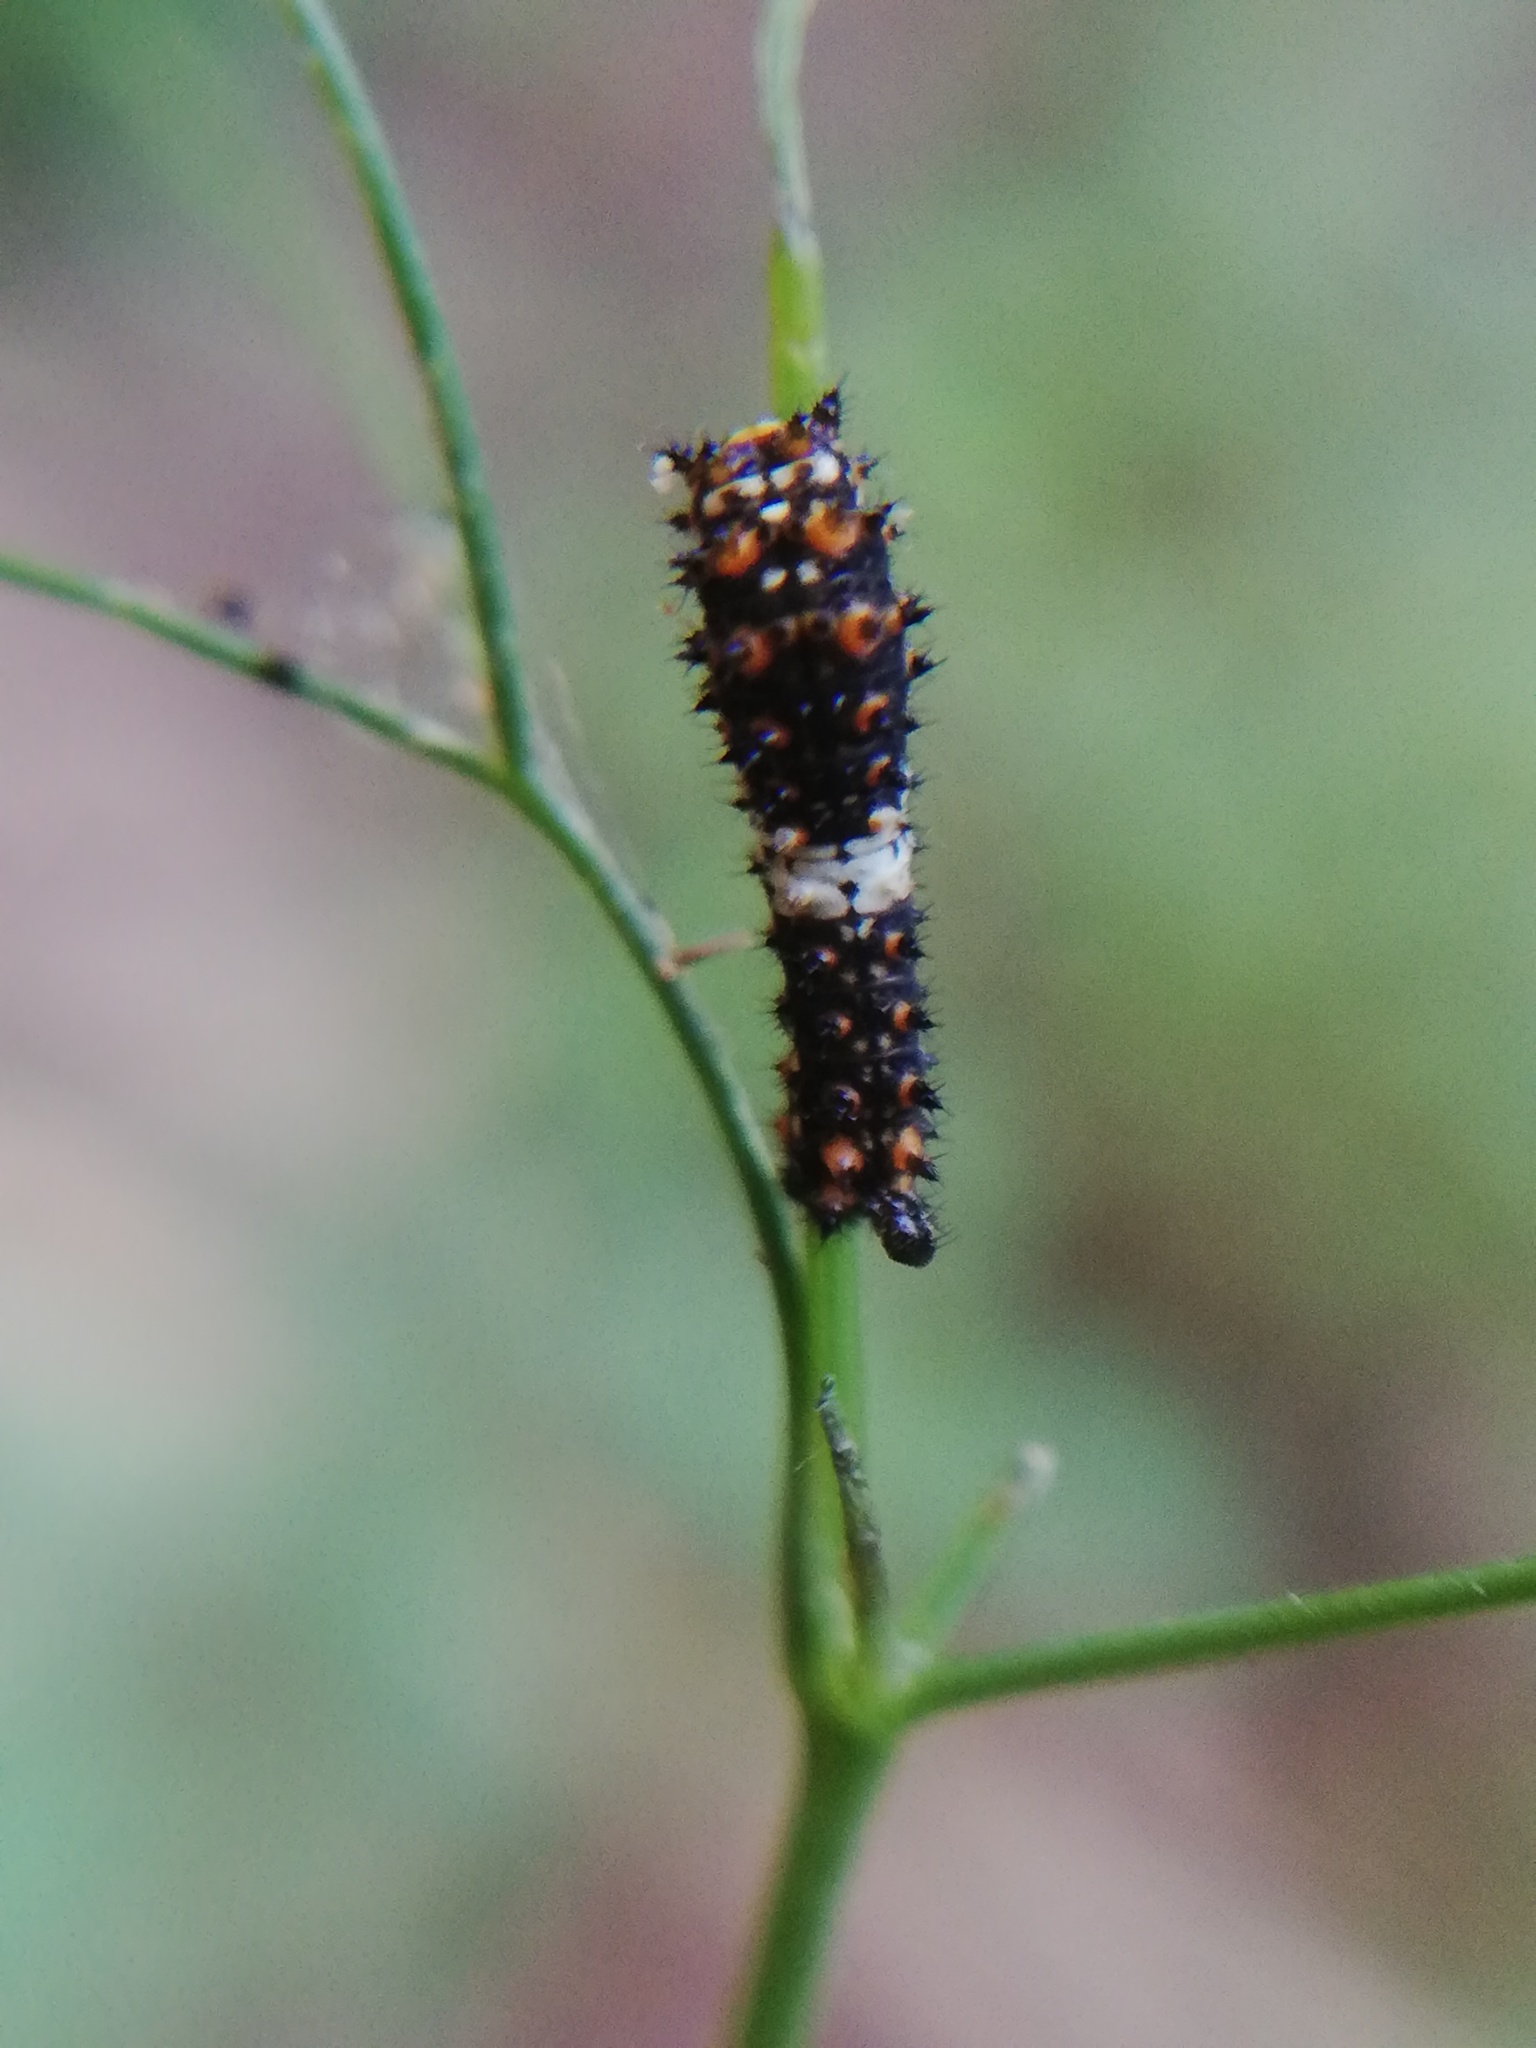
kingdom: Animalia
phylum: Arthropoda
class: Insecta
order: Lepidoptera
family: Papilionidae
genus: Papilio
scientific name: Papilio polyxenes
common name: Black swallowtail
